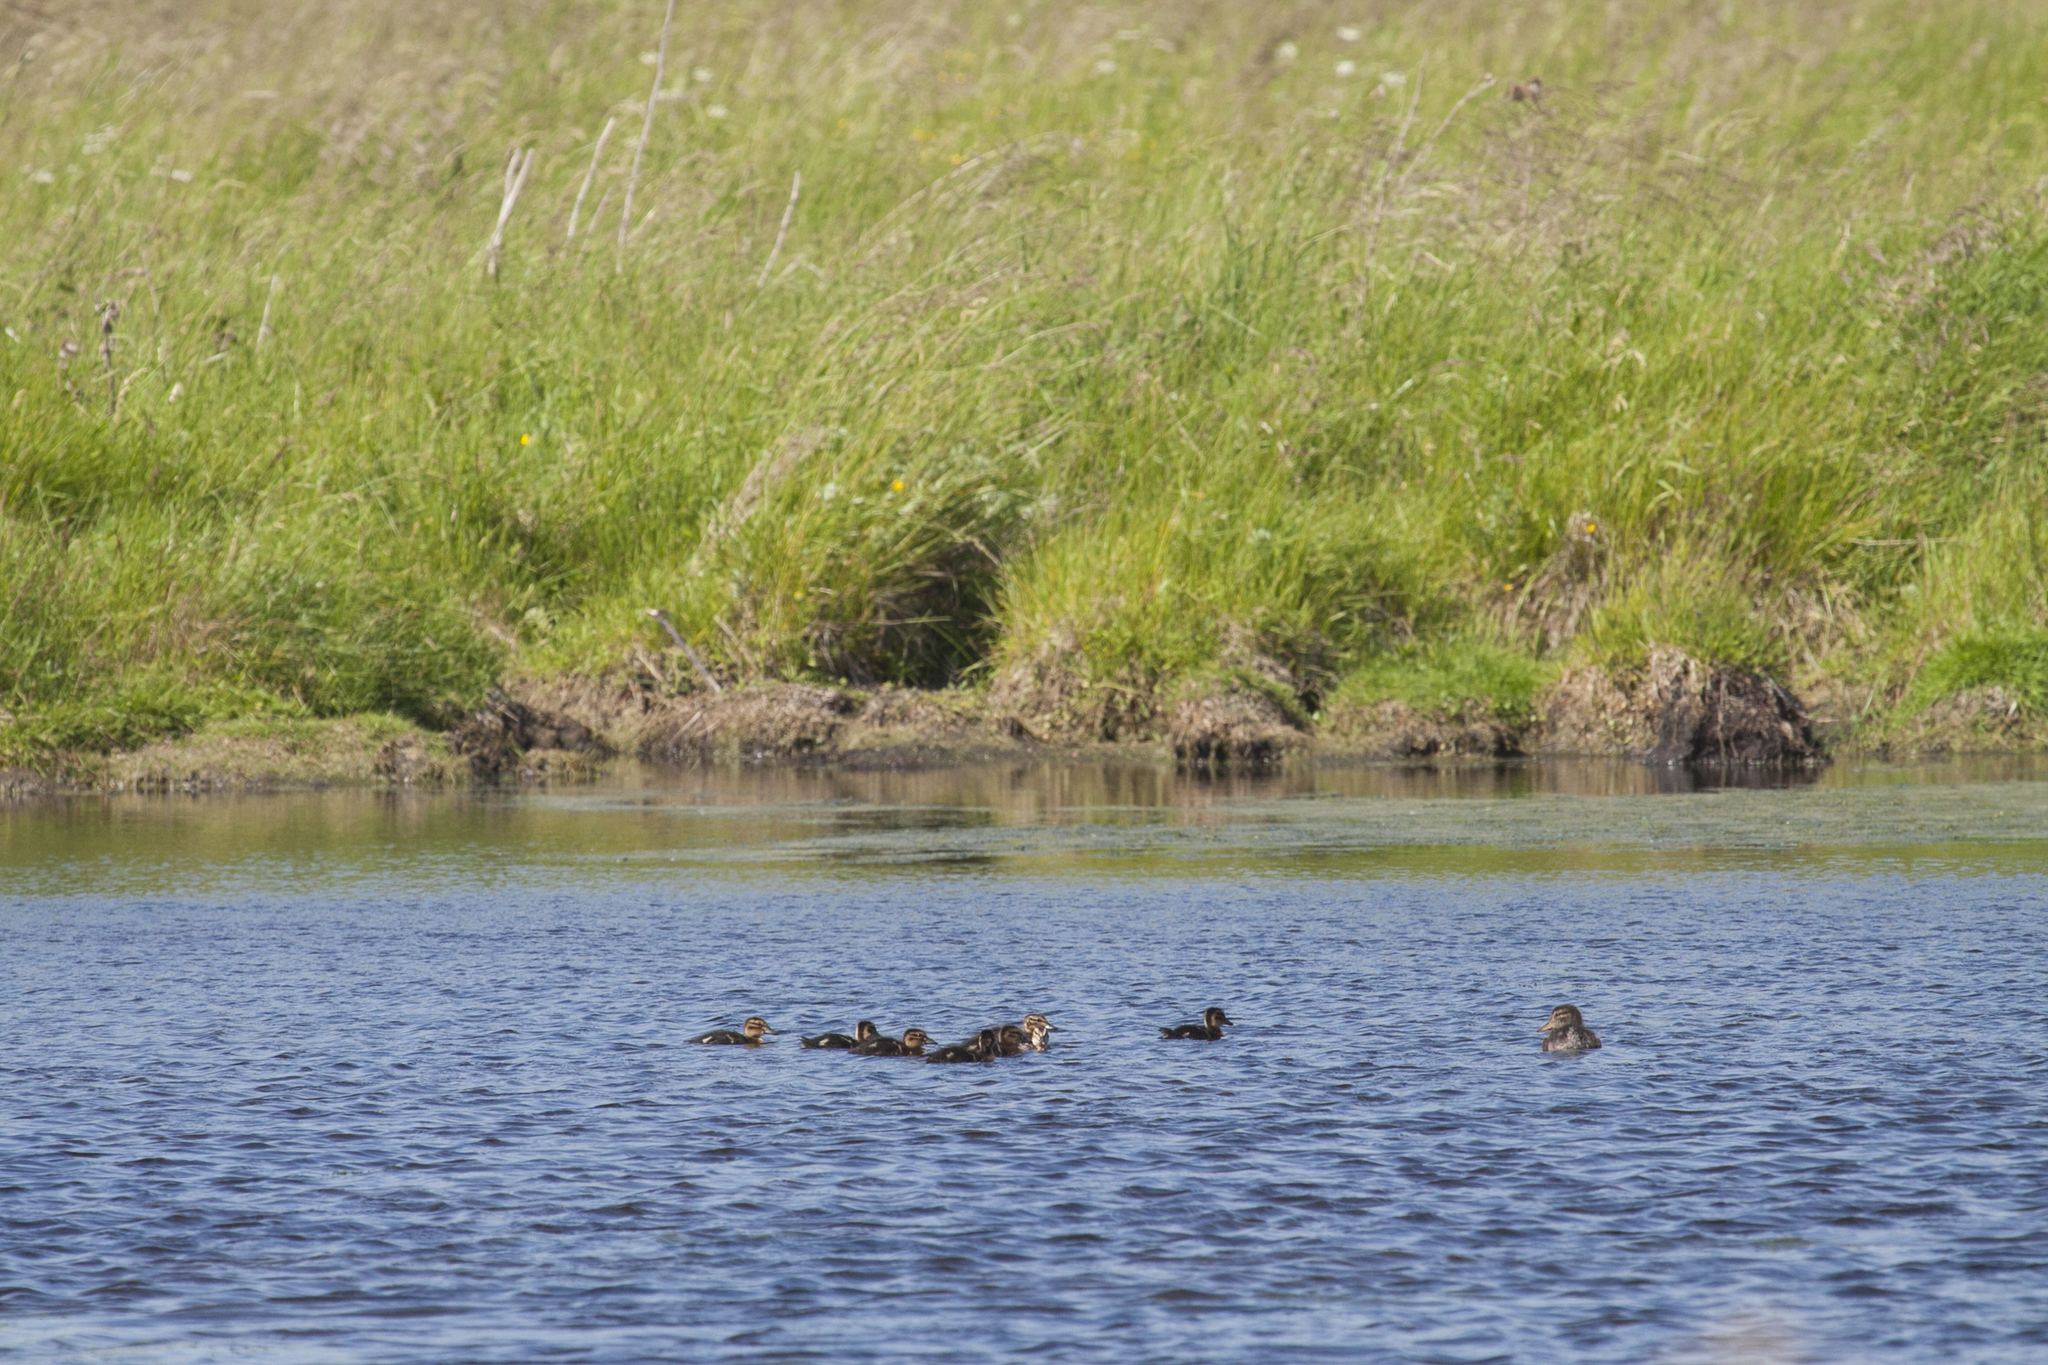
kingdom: Animalia
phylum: Chordata
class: Aves
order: Anseriformes
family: Anatidae
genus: Anas
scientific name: Anas platyrhynchos
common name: Mallard
